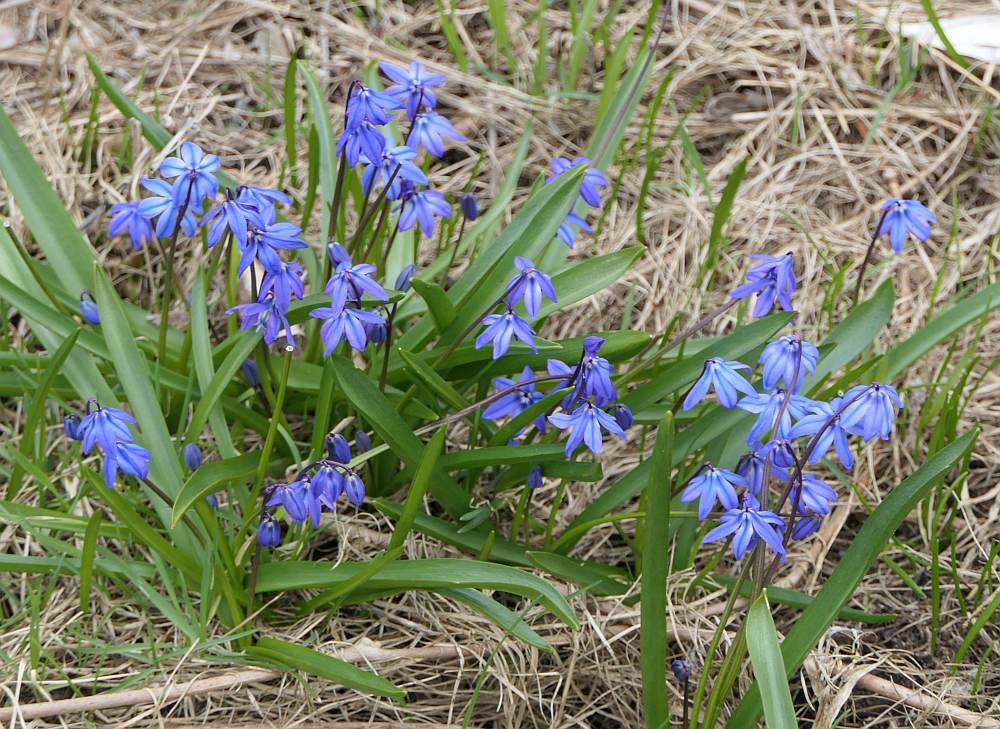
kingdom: Plantae
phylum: Tracheophyta
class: Liliopsida
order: Asparagales
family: Asparagaceae
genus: Scilla
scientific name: Scilla siberica
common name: Siberian squill
